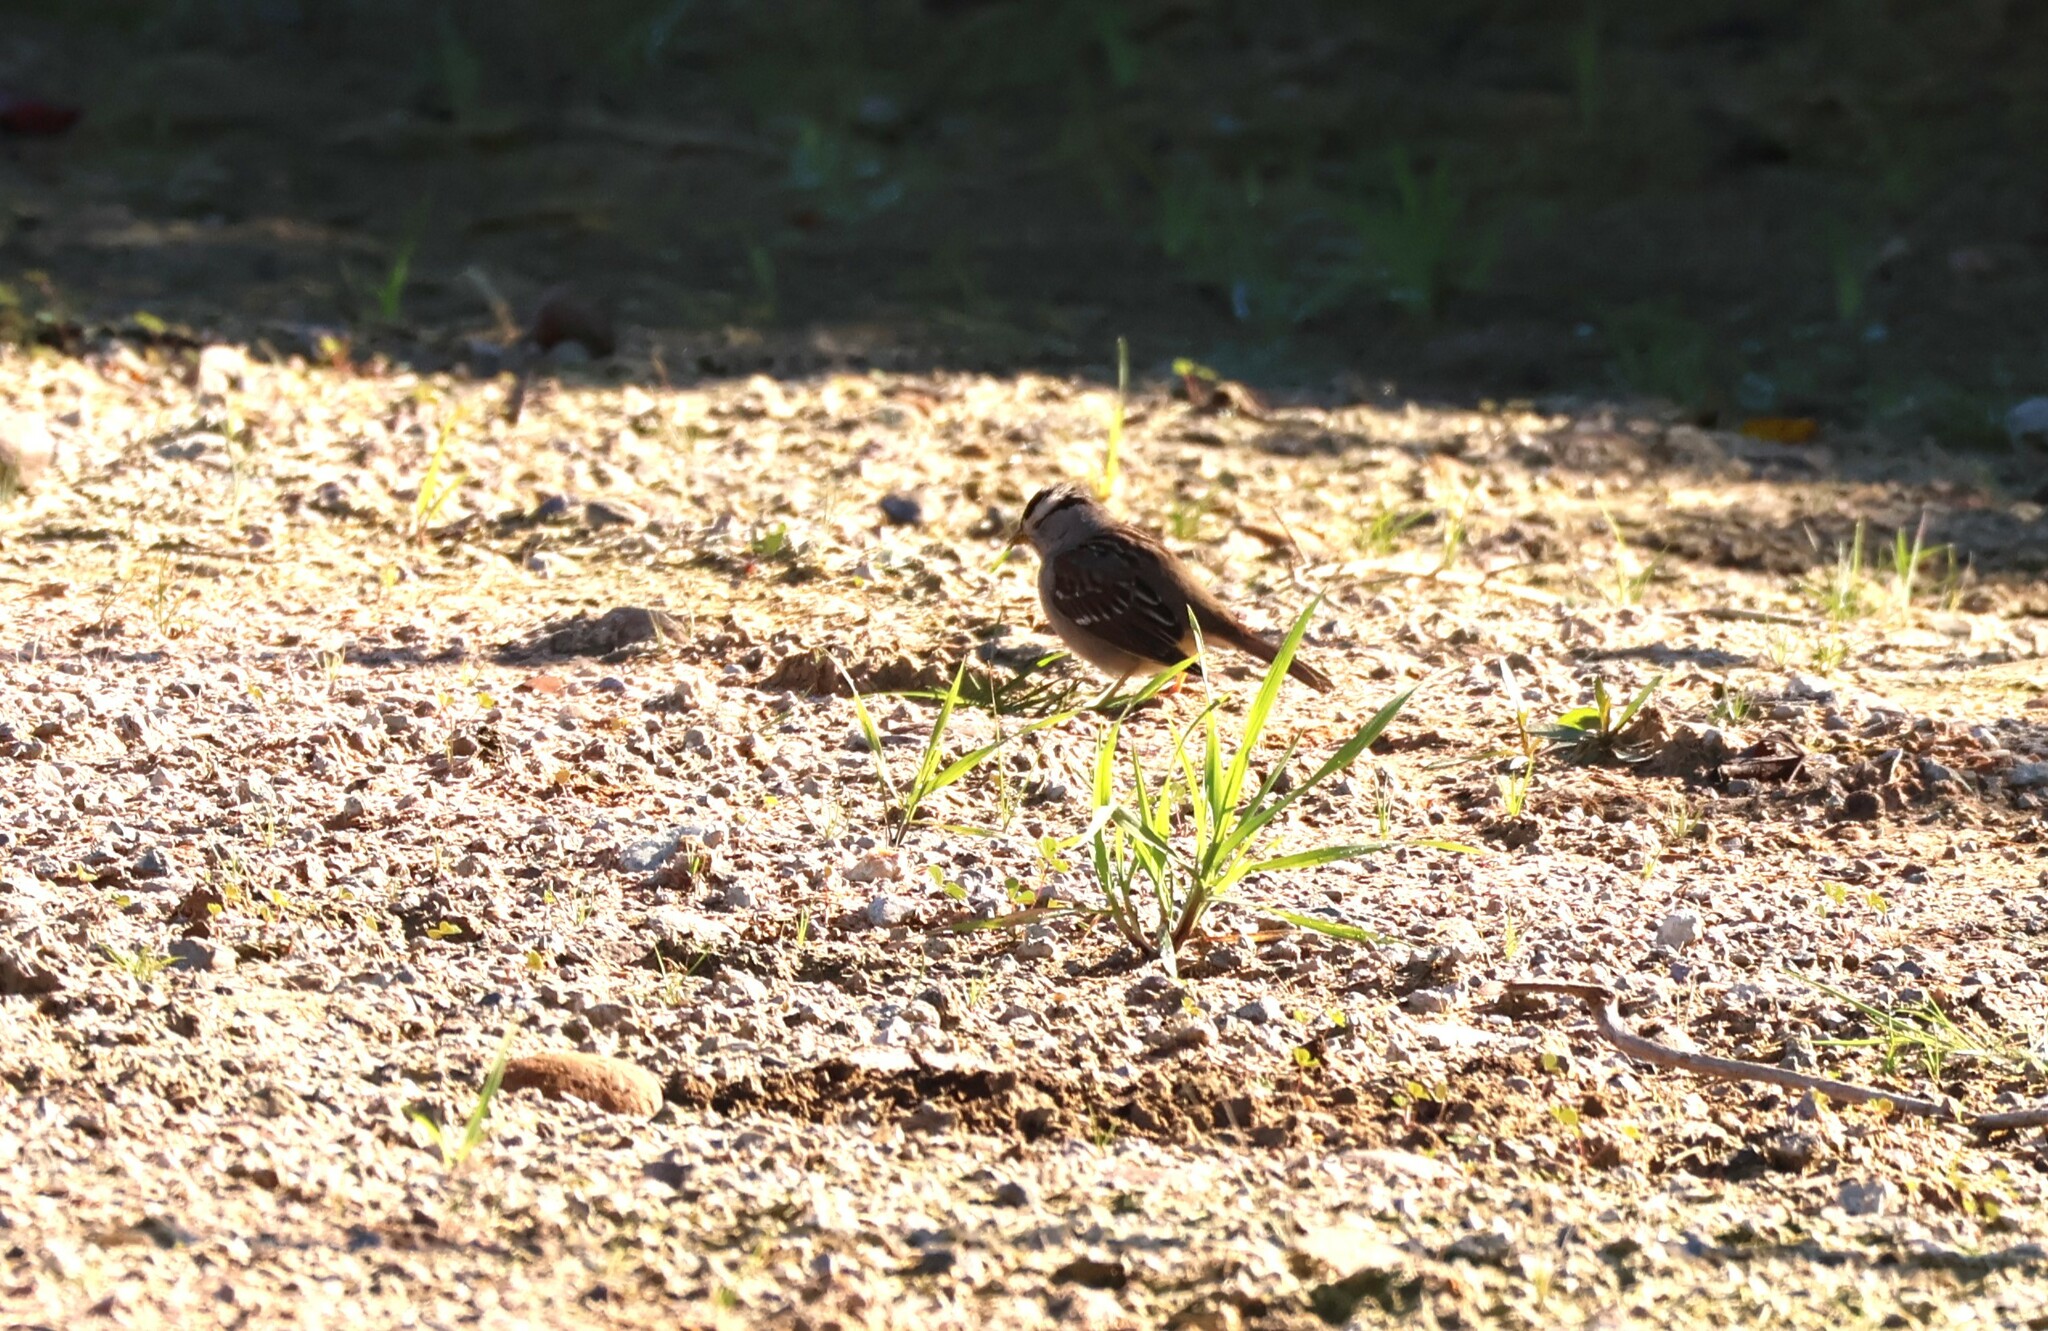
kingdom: Animalia
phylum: Chordata
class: Aves
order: Passeriformes
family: Passerellidae
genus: Zonotrichia
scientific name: Zonotrichia leucophrys
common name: White-crowned sparrow
